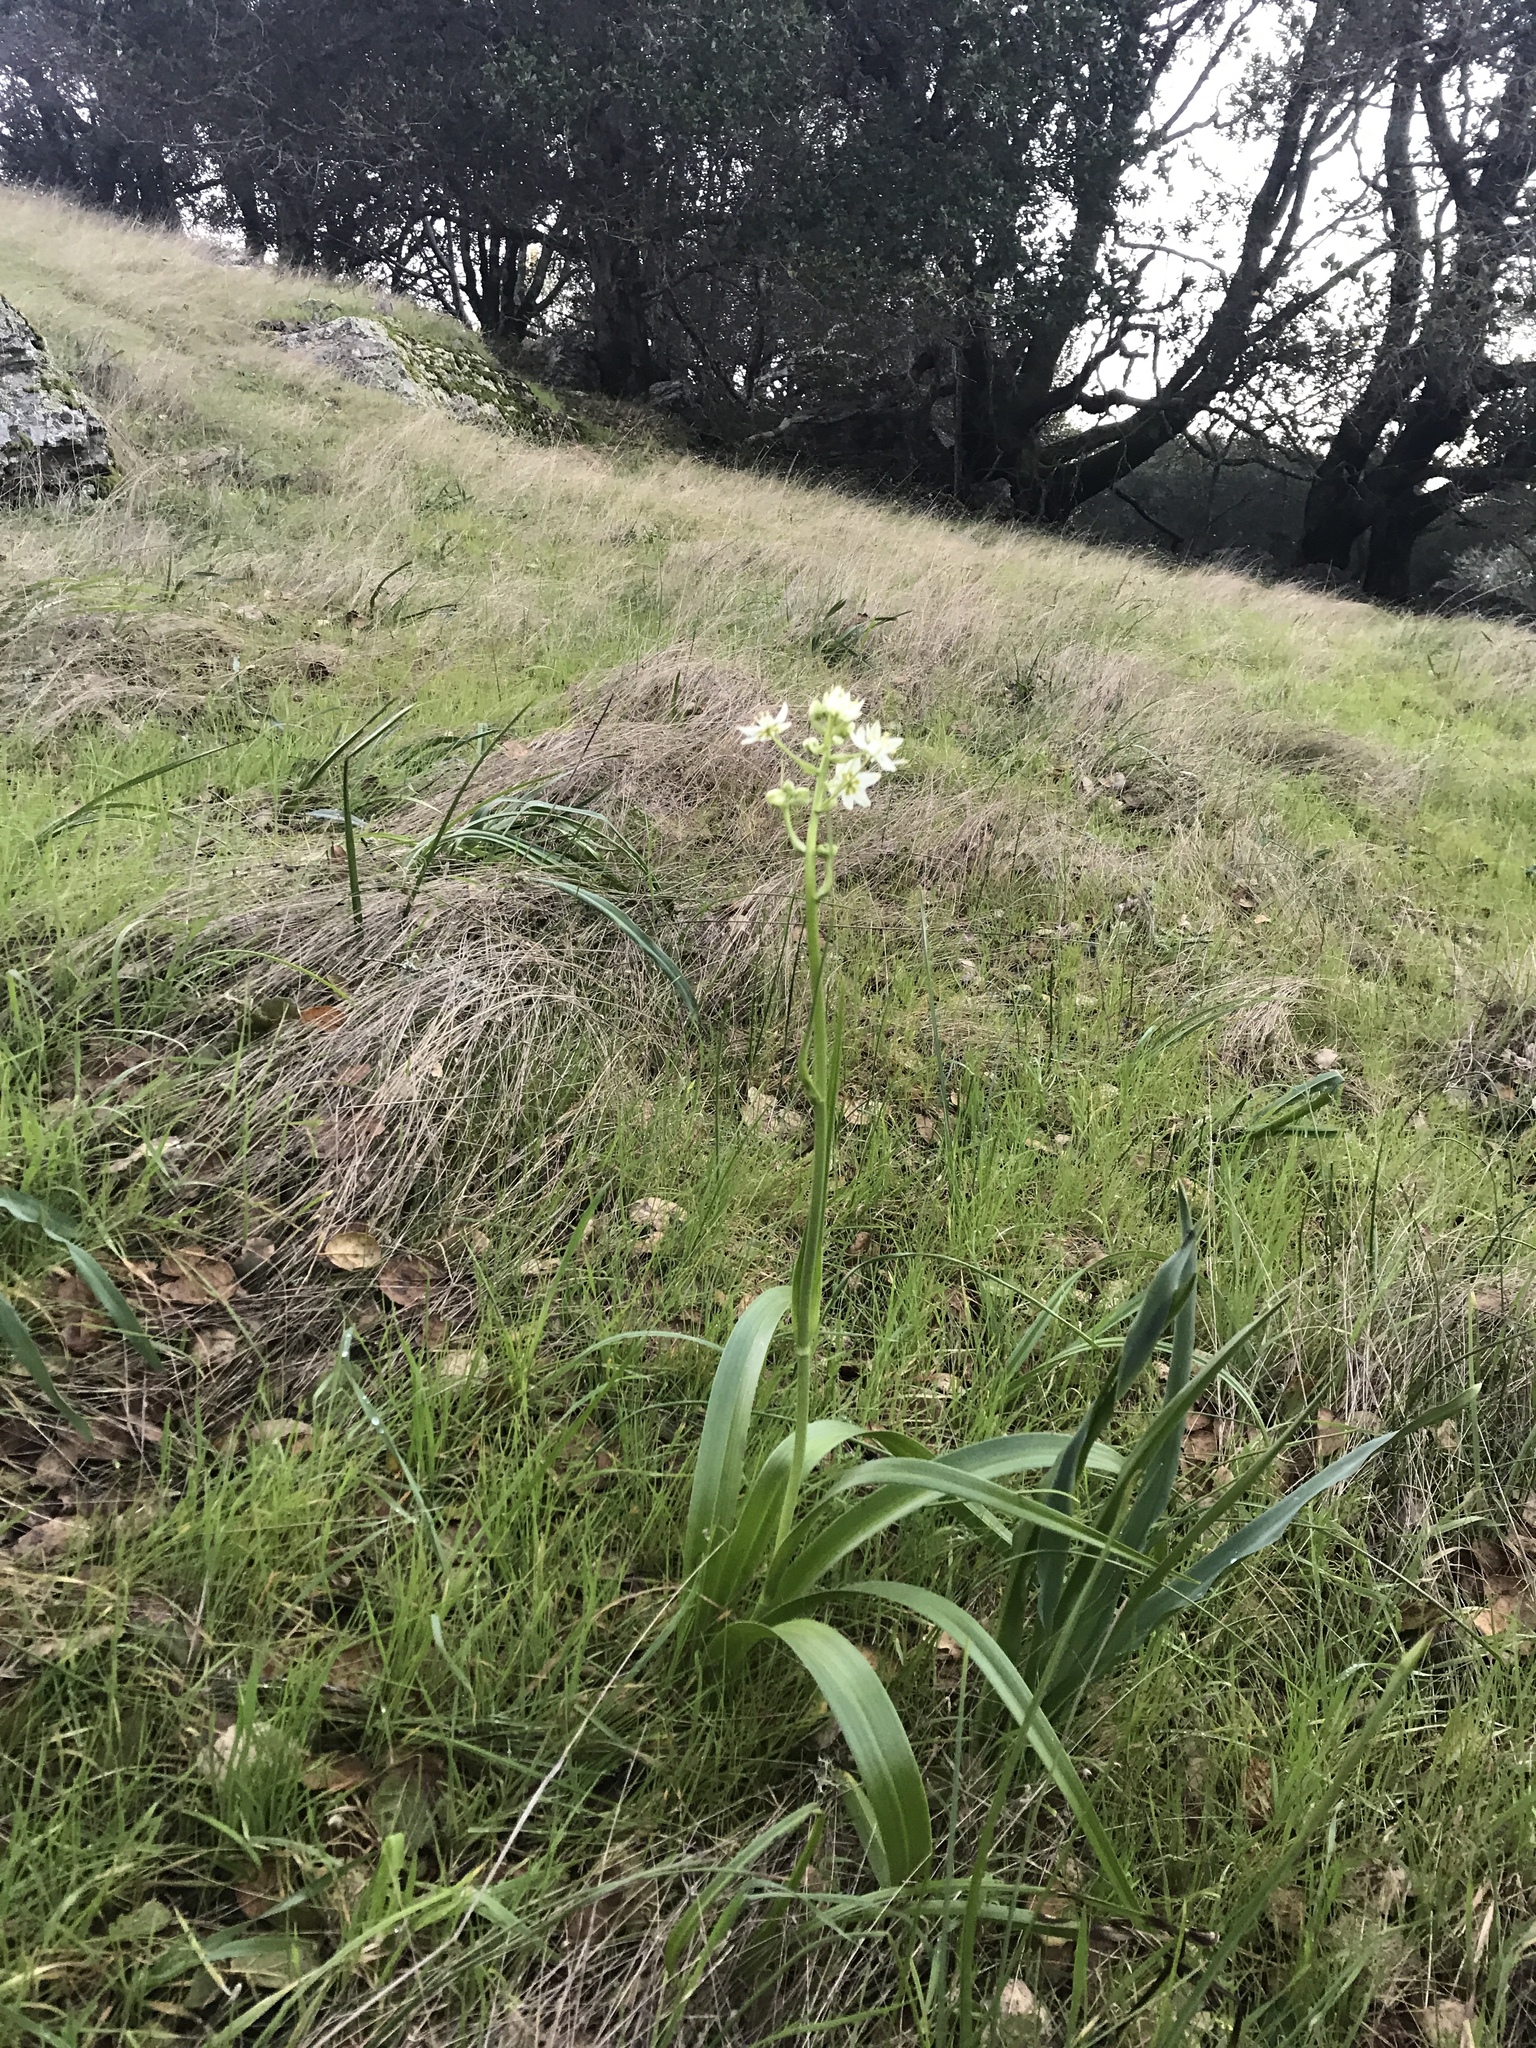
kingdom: Plantae
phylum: Tracheophyta
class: Liliopsida
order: Liliales
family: Melanthiaceae
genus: Toxicoscordion
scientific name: Toxicoscordion fremontii
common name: Fremont's death camas
